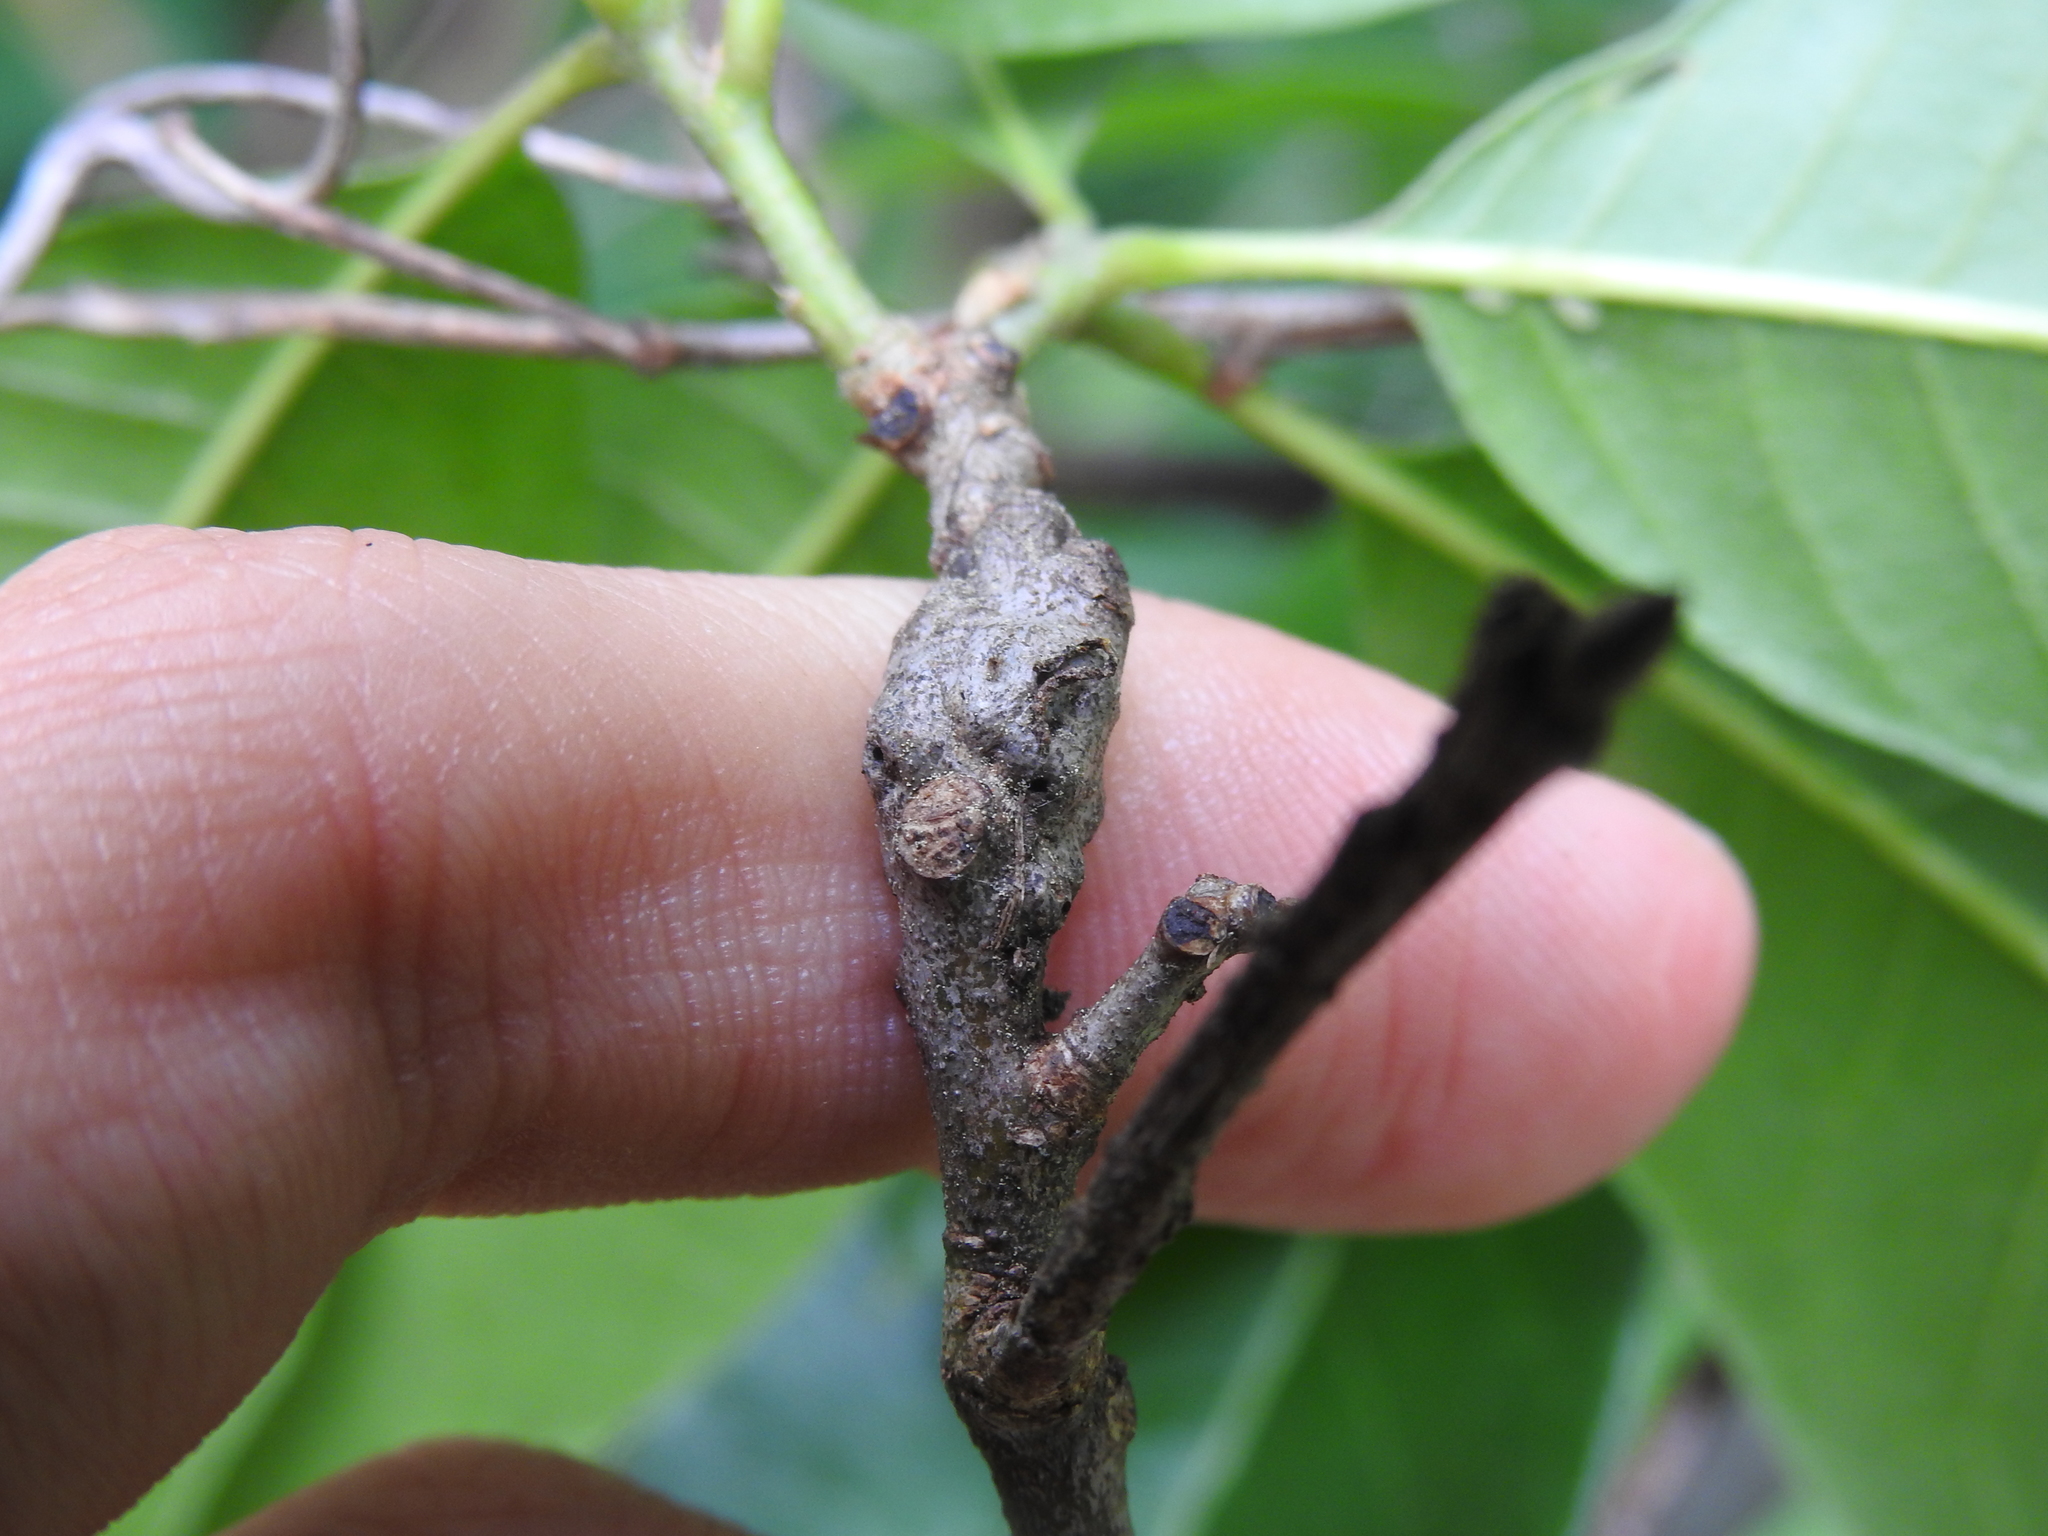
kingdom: Animalia
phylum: Arthropoda
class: Insecta
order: Hymenoptera
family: Cynipidae
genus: Callirhytis
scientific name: Callirhytis
